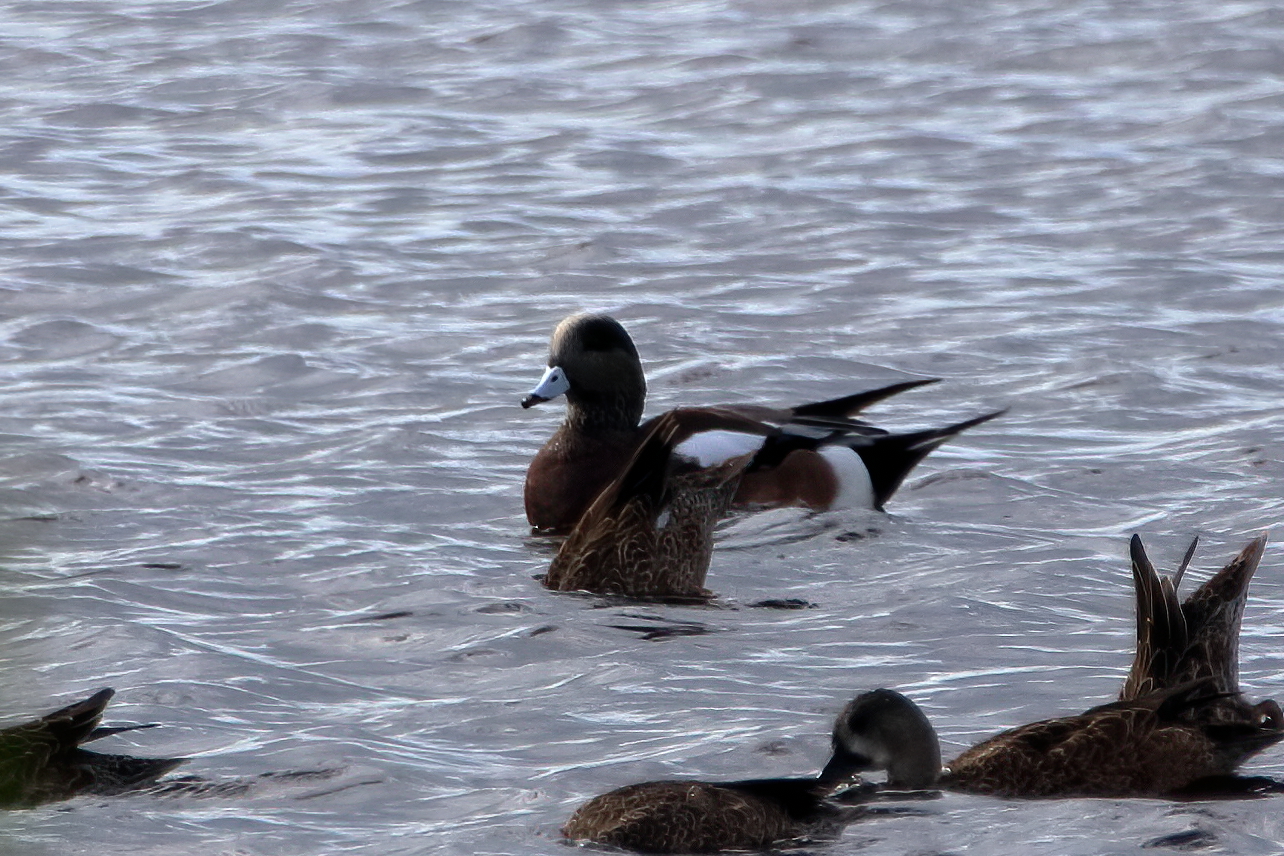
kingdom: Animalia
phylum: Chordata
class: Aves
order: Anseriformes
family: Anatidae
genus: Mareca
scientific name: Mareca americana
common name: American wigeon
